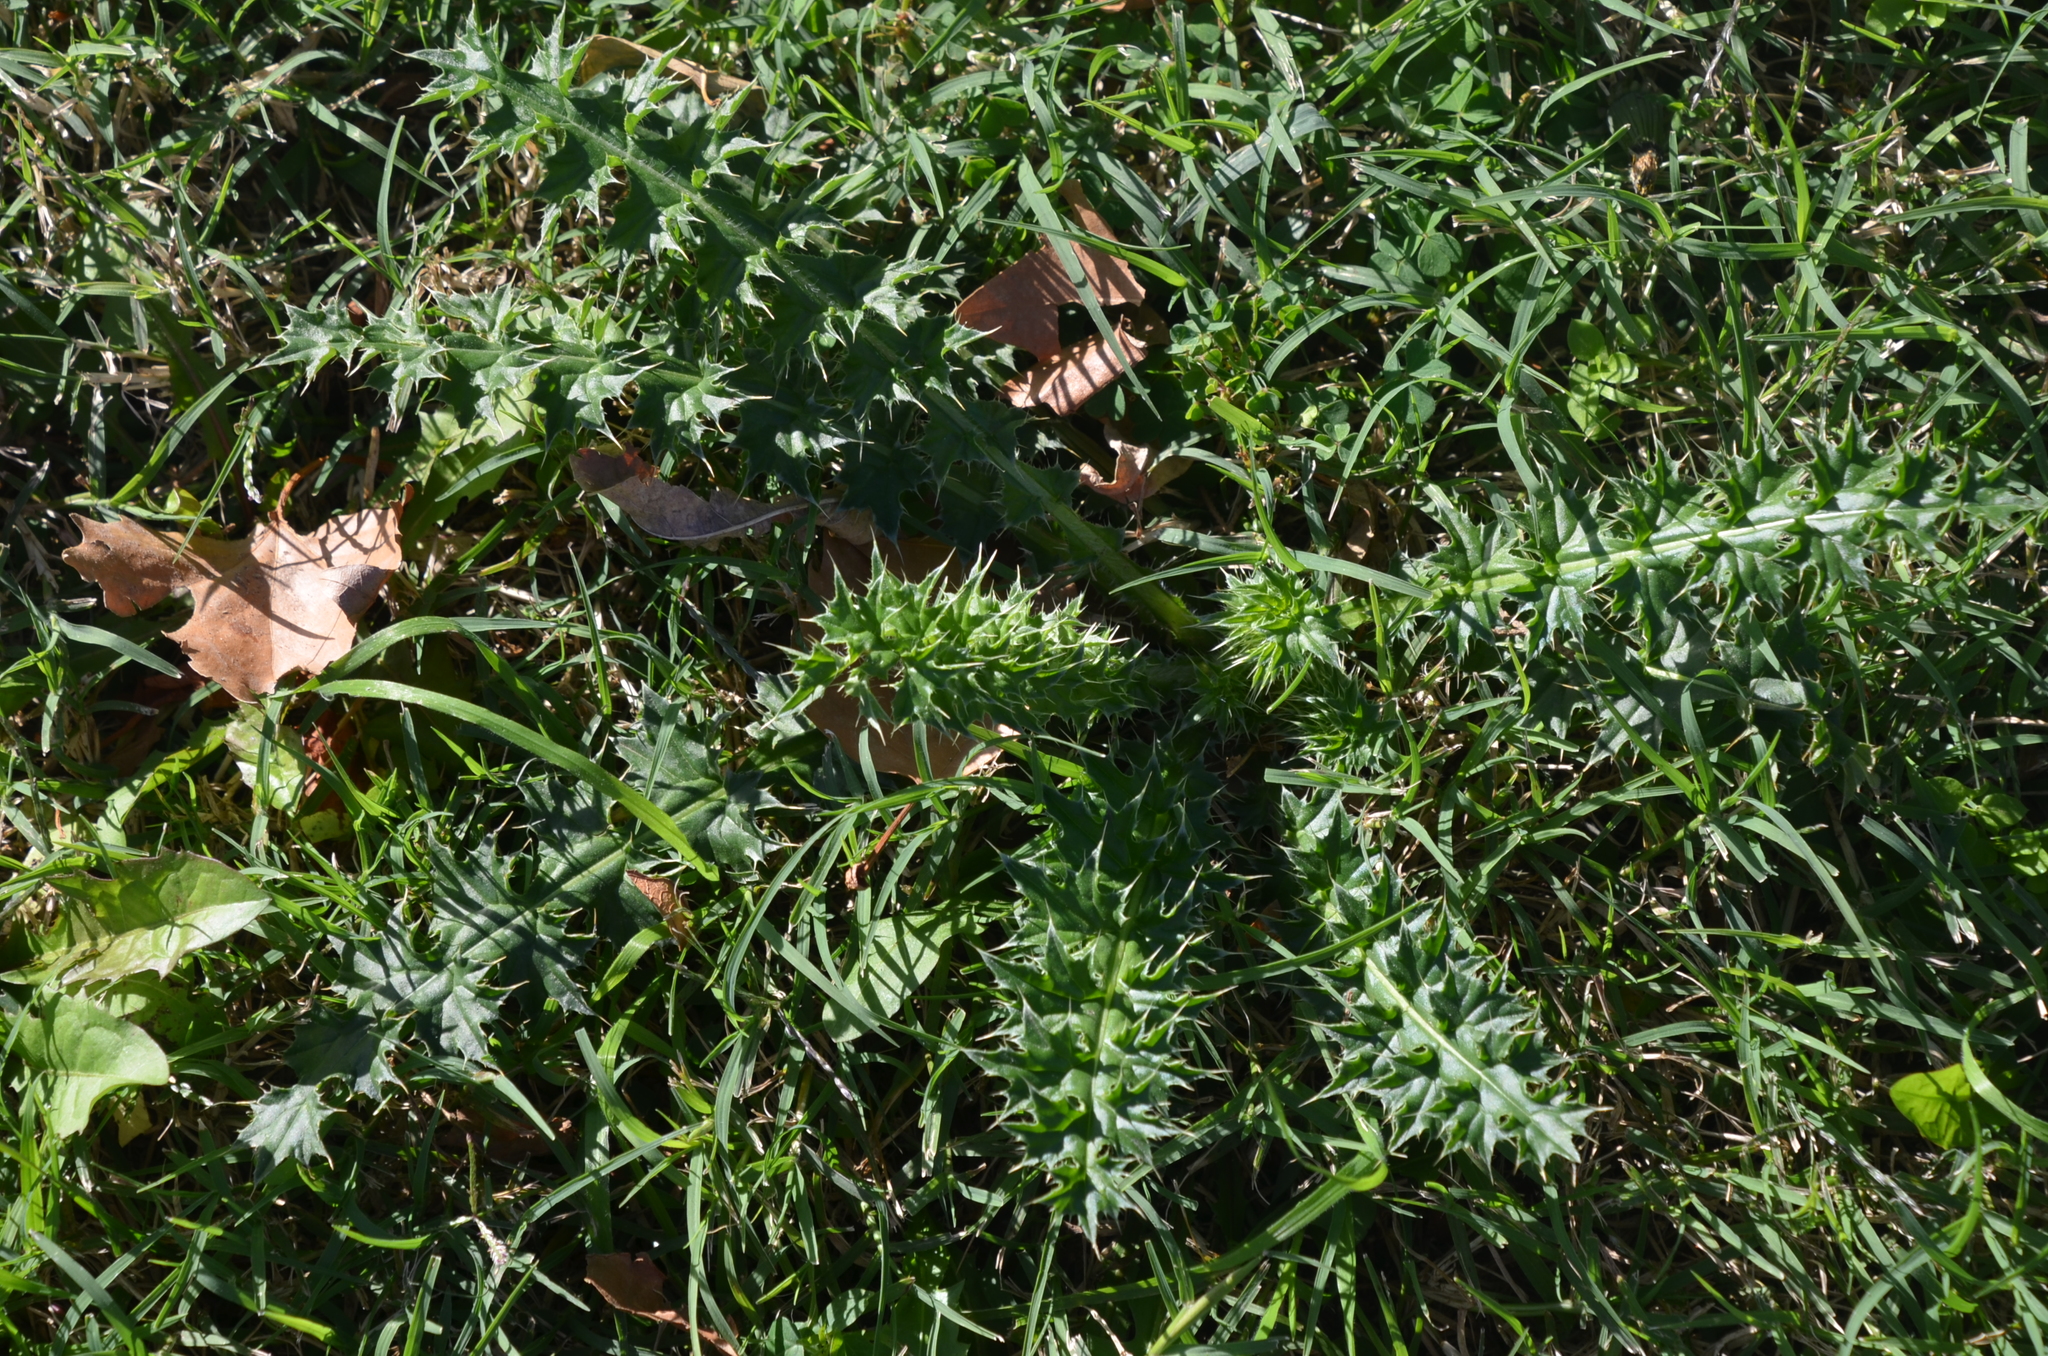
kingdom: Plantae
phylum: Tracheophyta
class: Magnoliopsida
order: Asterales
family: Asteraceae
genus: Carduus
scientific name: Carduus acanthoides
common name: Plumeless thistle
